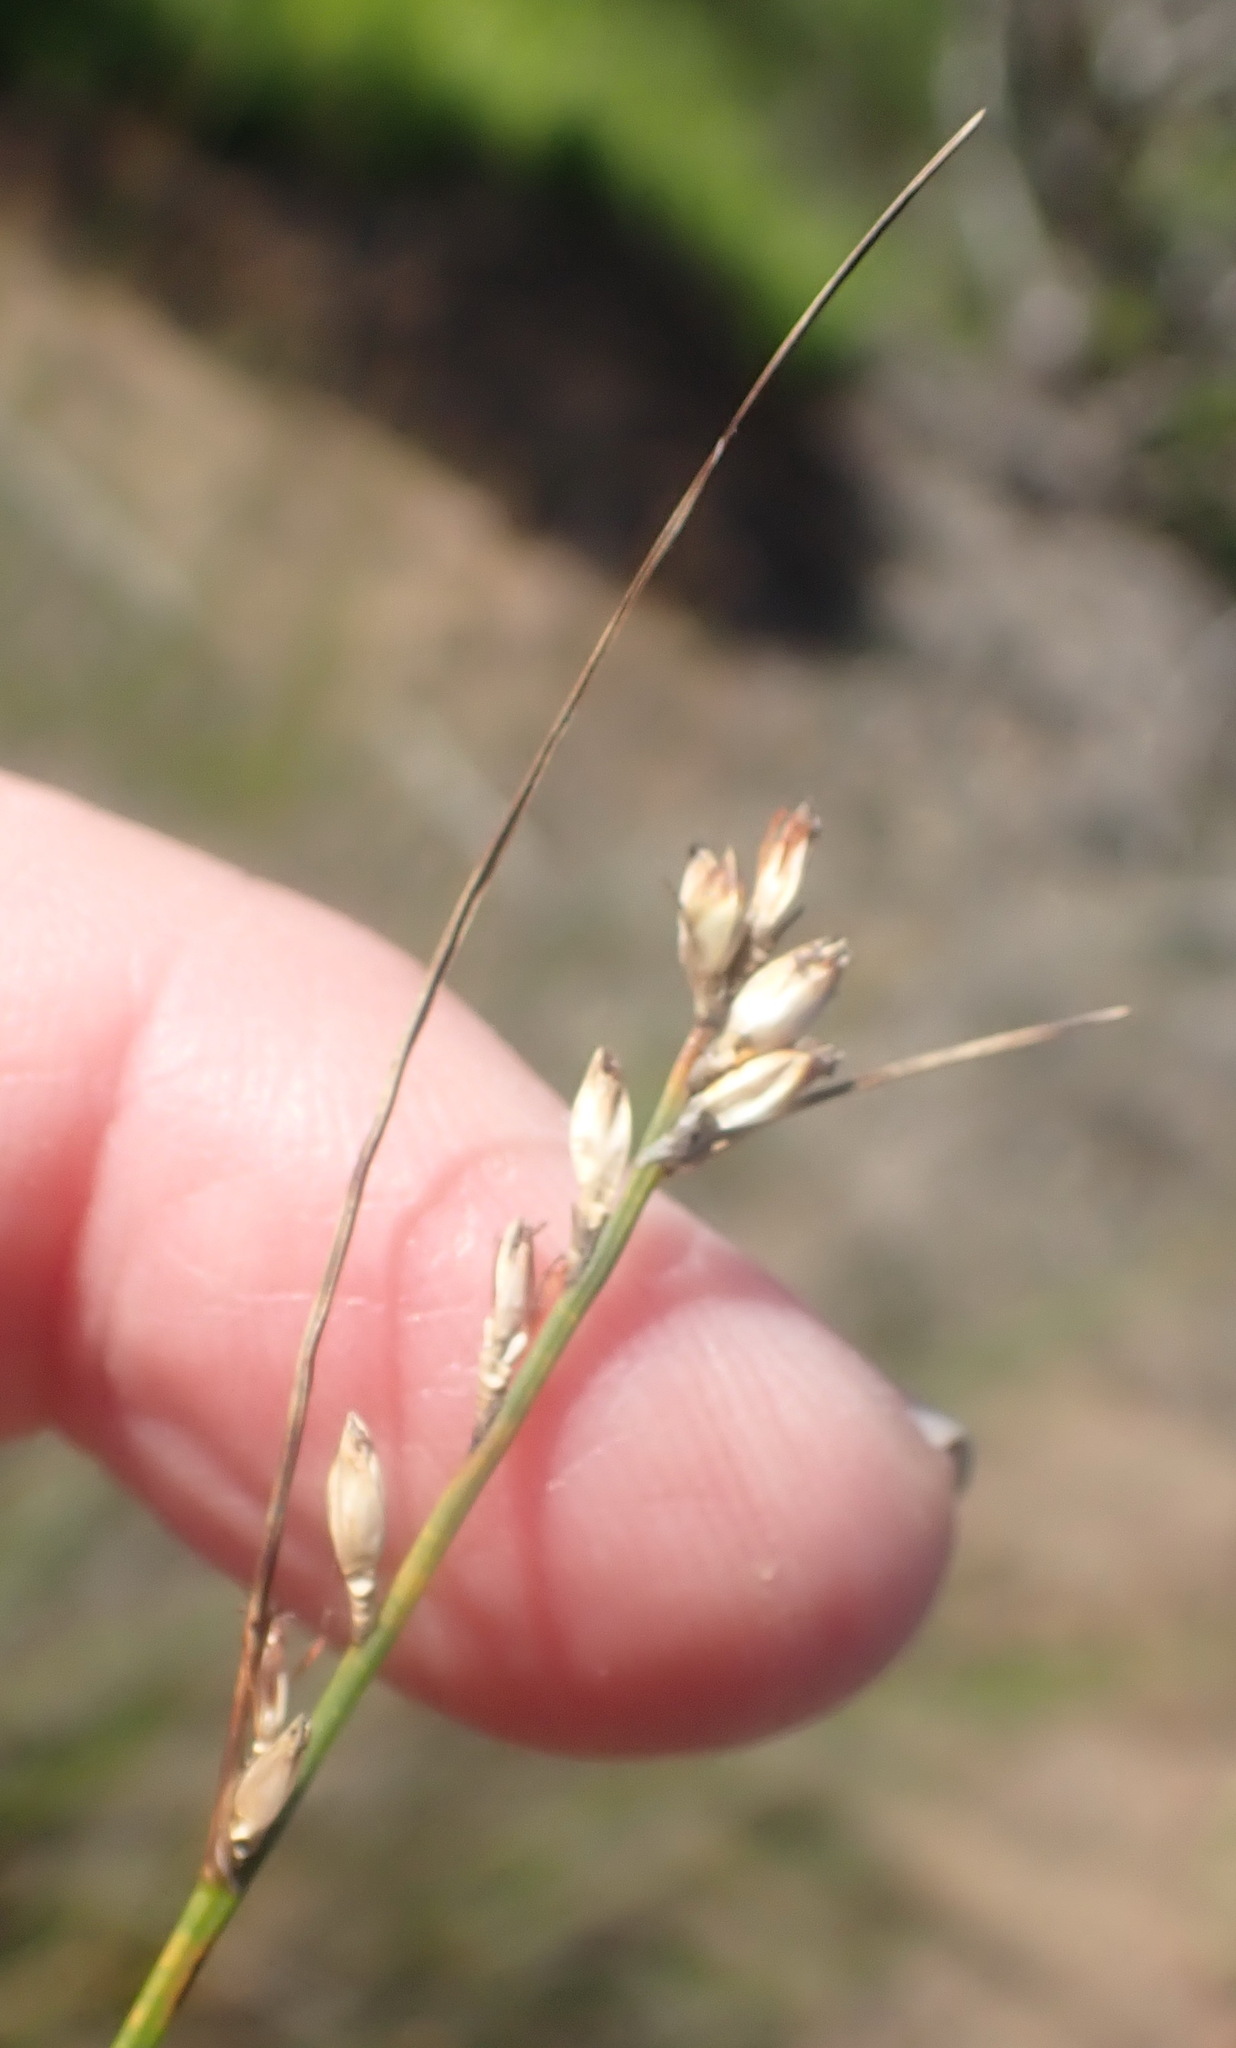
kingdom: Plantae
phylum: Tracheophyta
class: Liliopsida
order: Poales
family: Cyperaceae
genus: Ficinia
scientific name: Ficinia secunda
